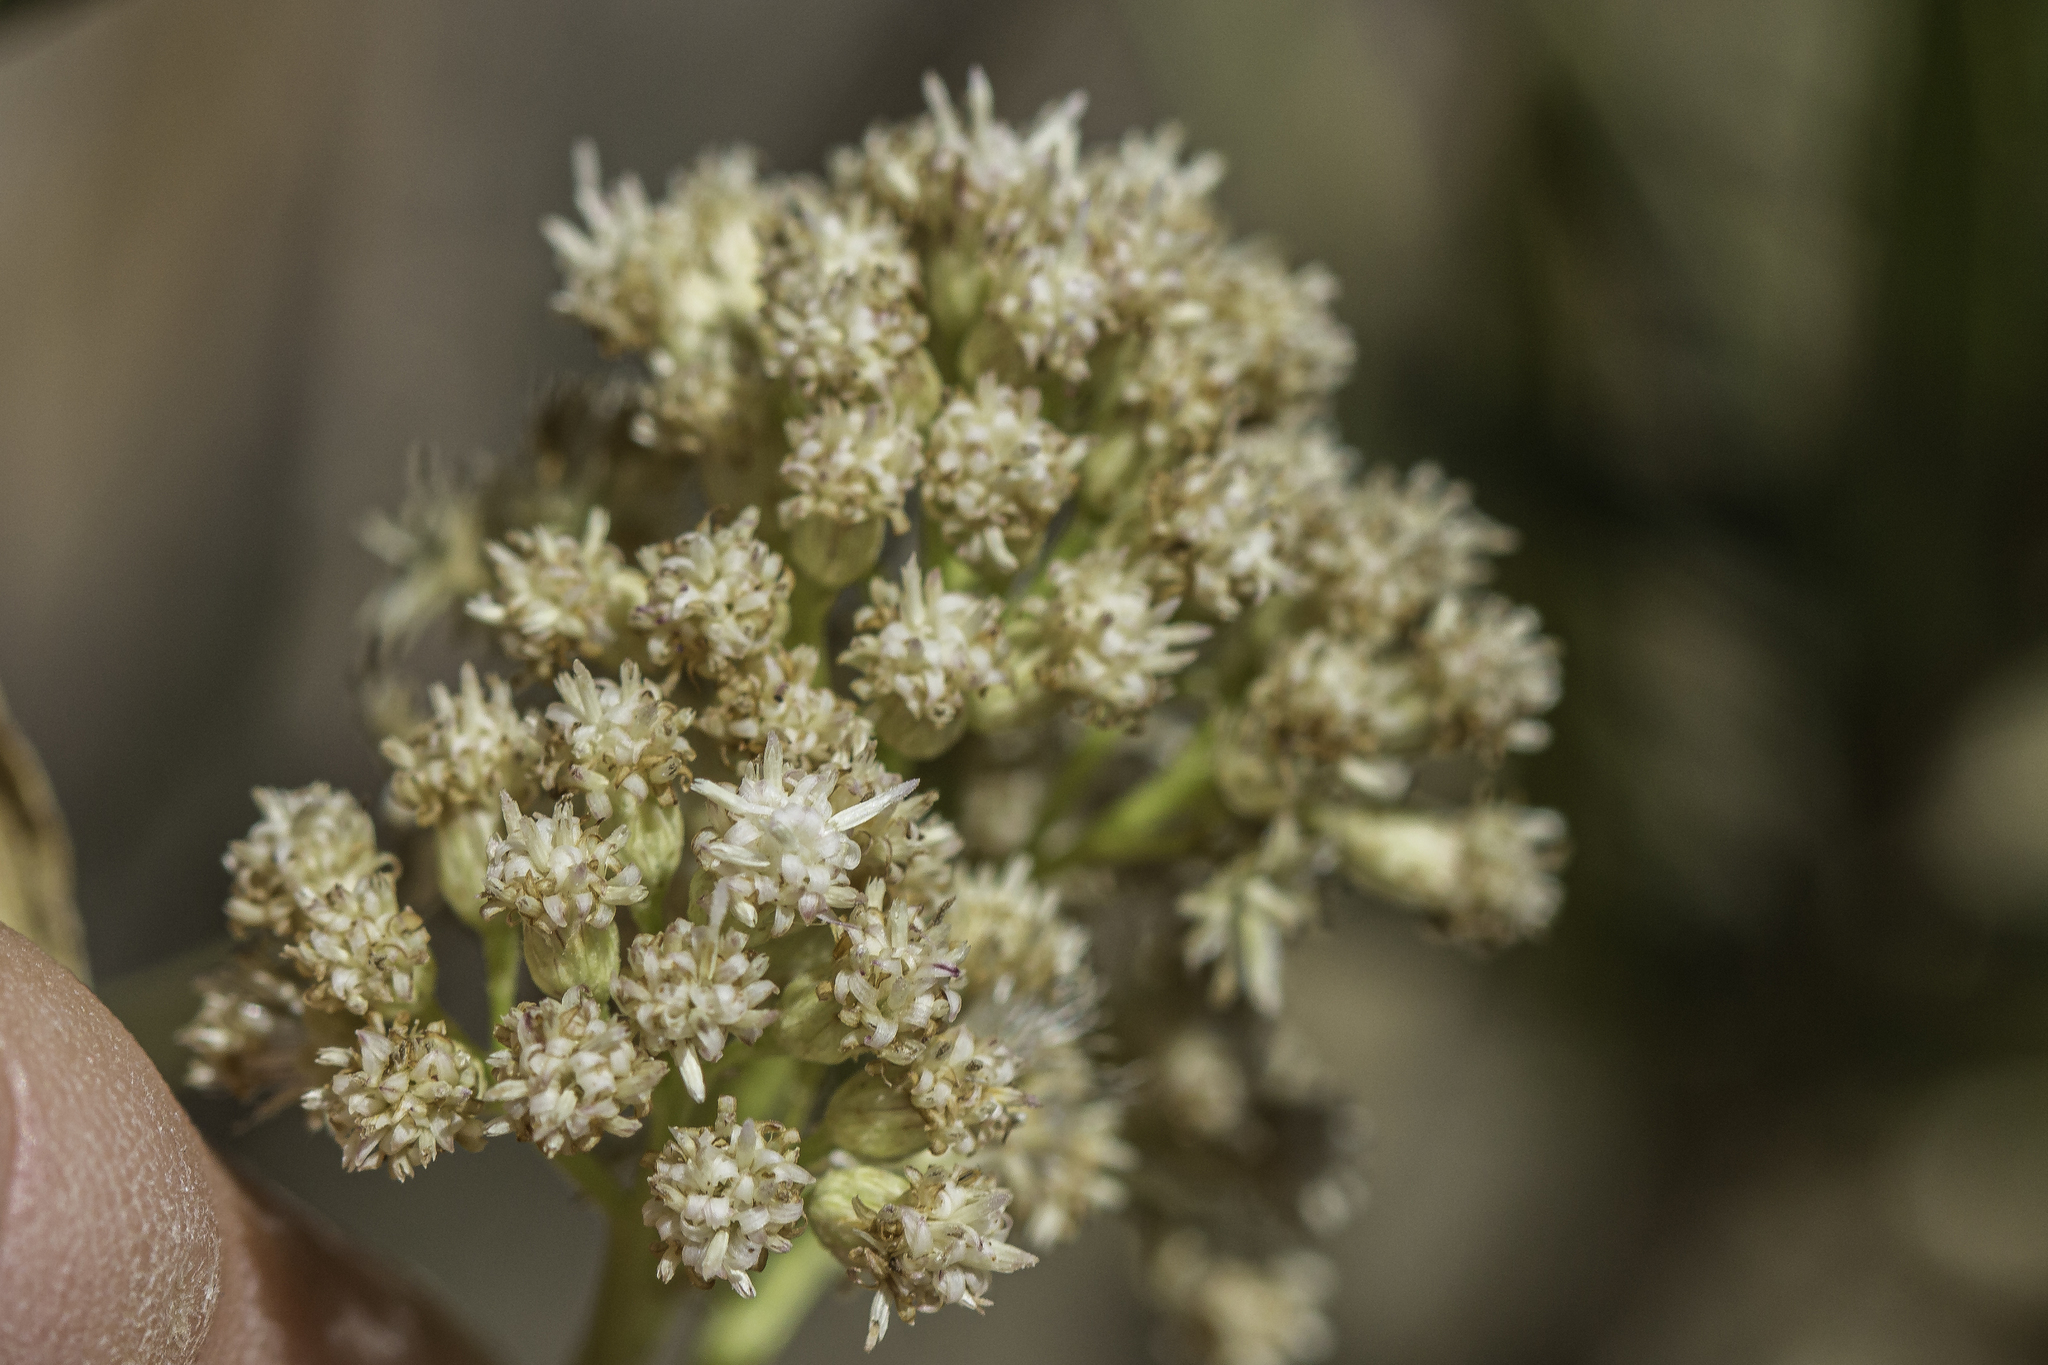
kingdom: Plantae
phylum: Tracheophyta
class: Magnoliopsida
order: Asterales
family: Asteraceae
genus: Baccharis
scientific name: Baccharis salicifolia
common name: Sticky baccharis
